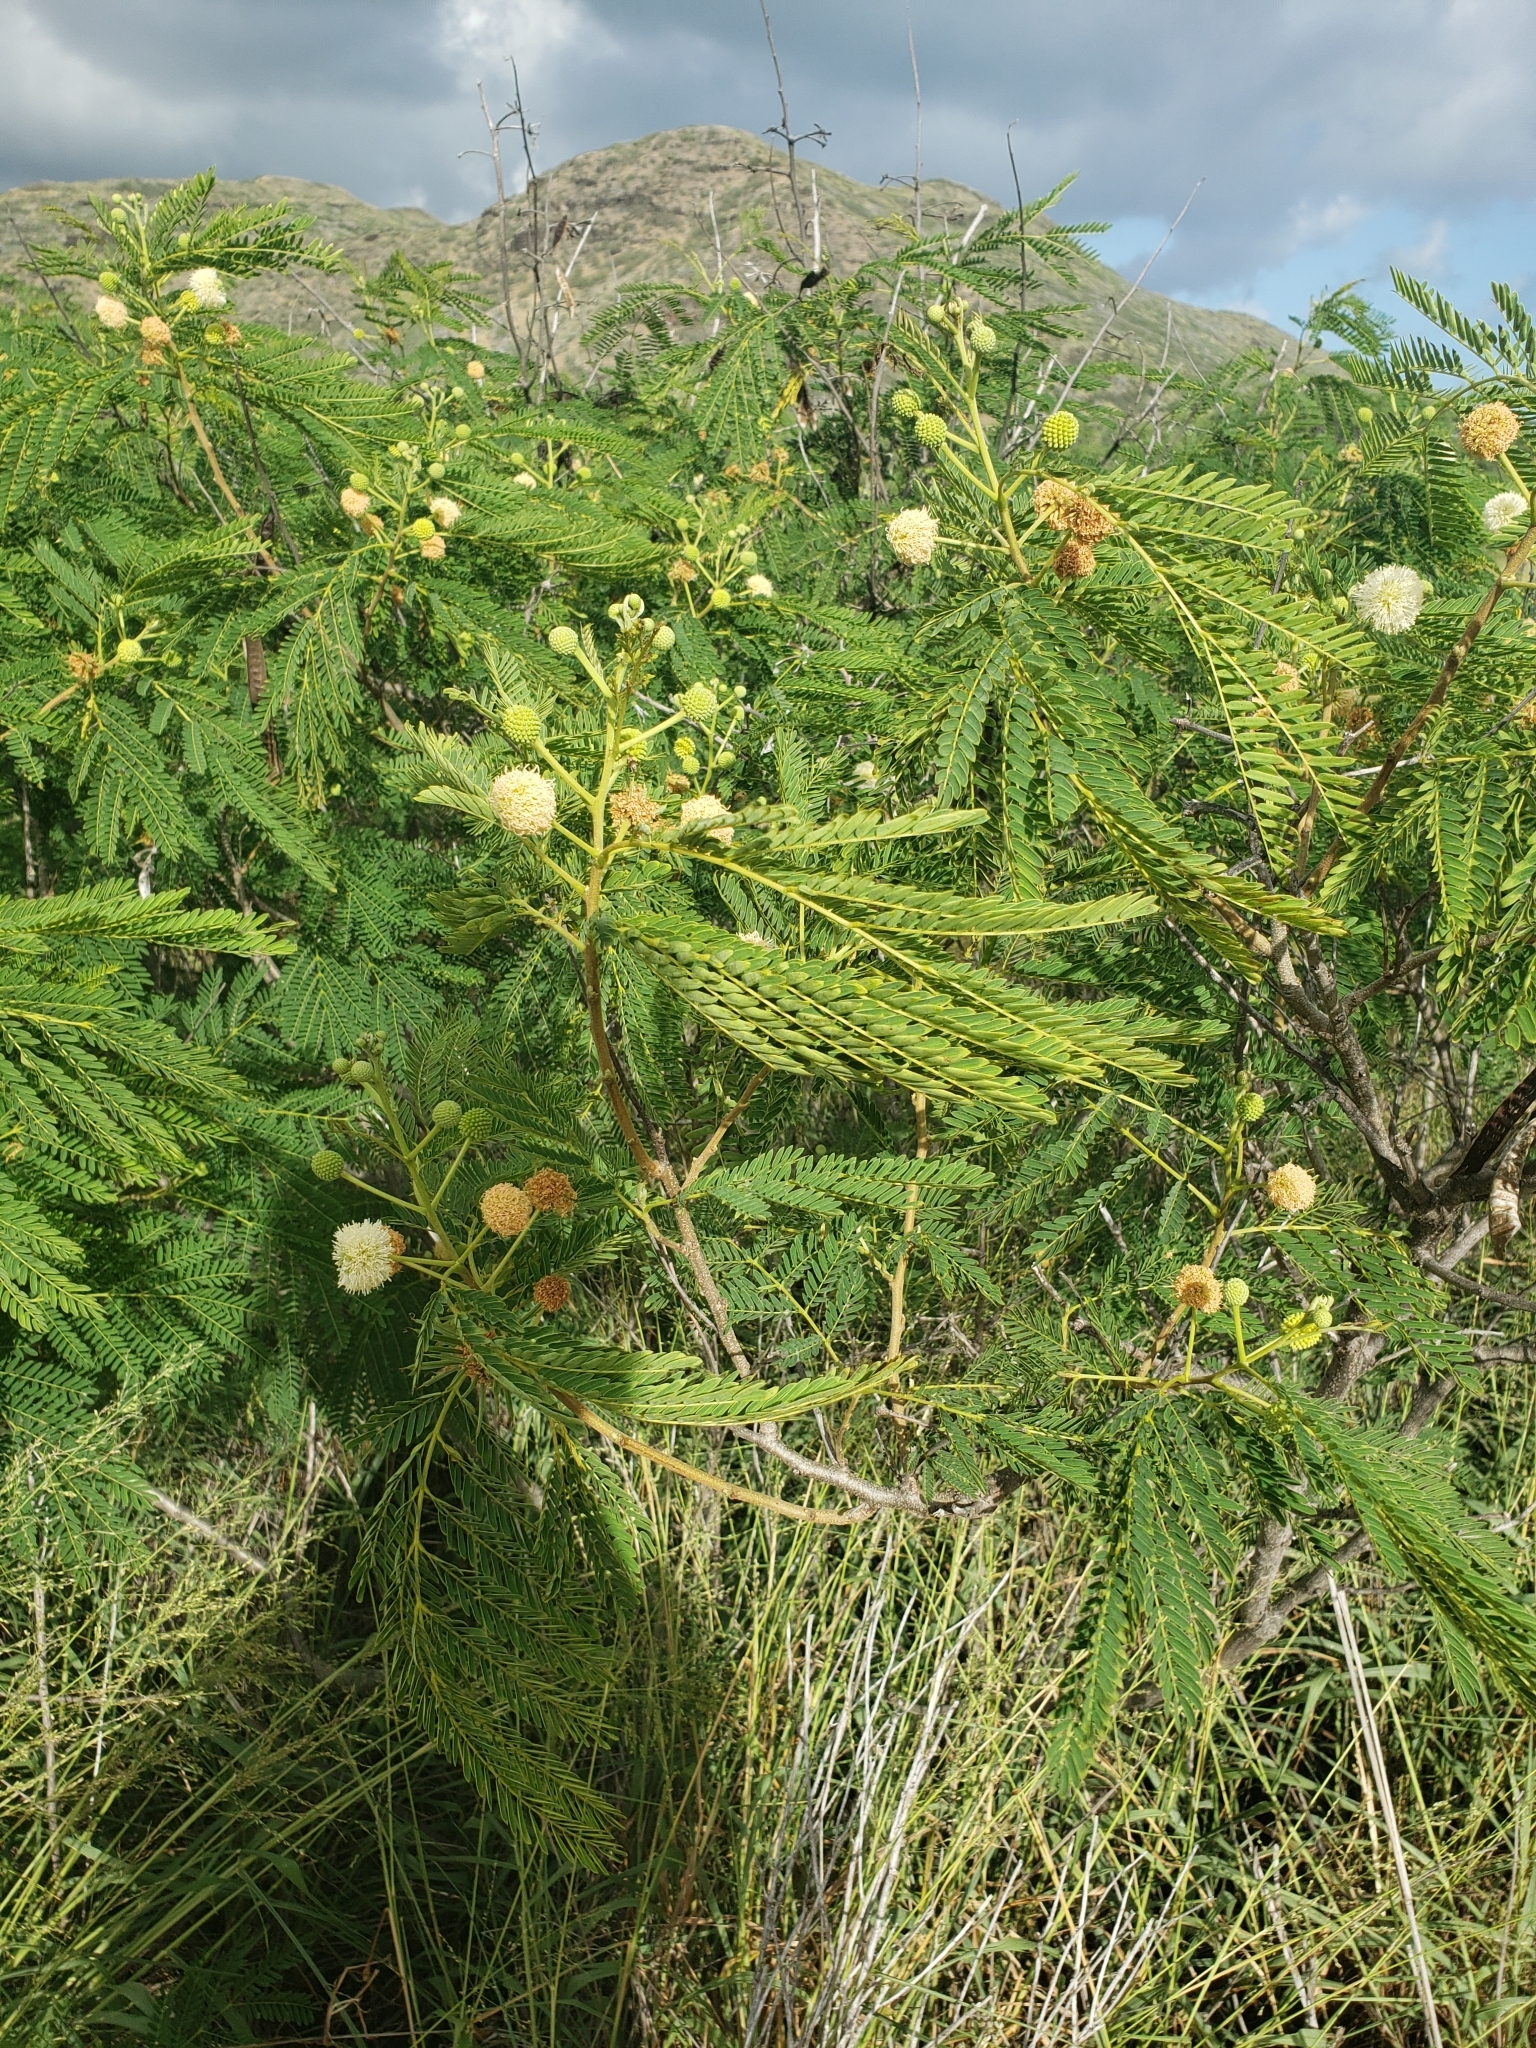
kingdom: Plantae
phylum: Tracheophyta
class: Magnoliopsida
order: Fabales
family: Fabaceae
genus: Leucaena
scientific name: Leucaena leucocephala
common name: White leadtree
